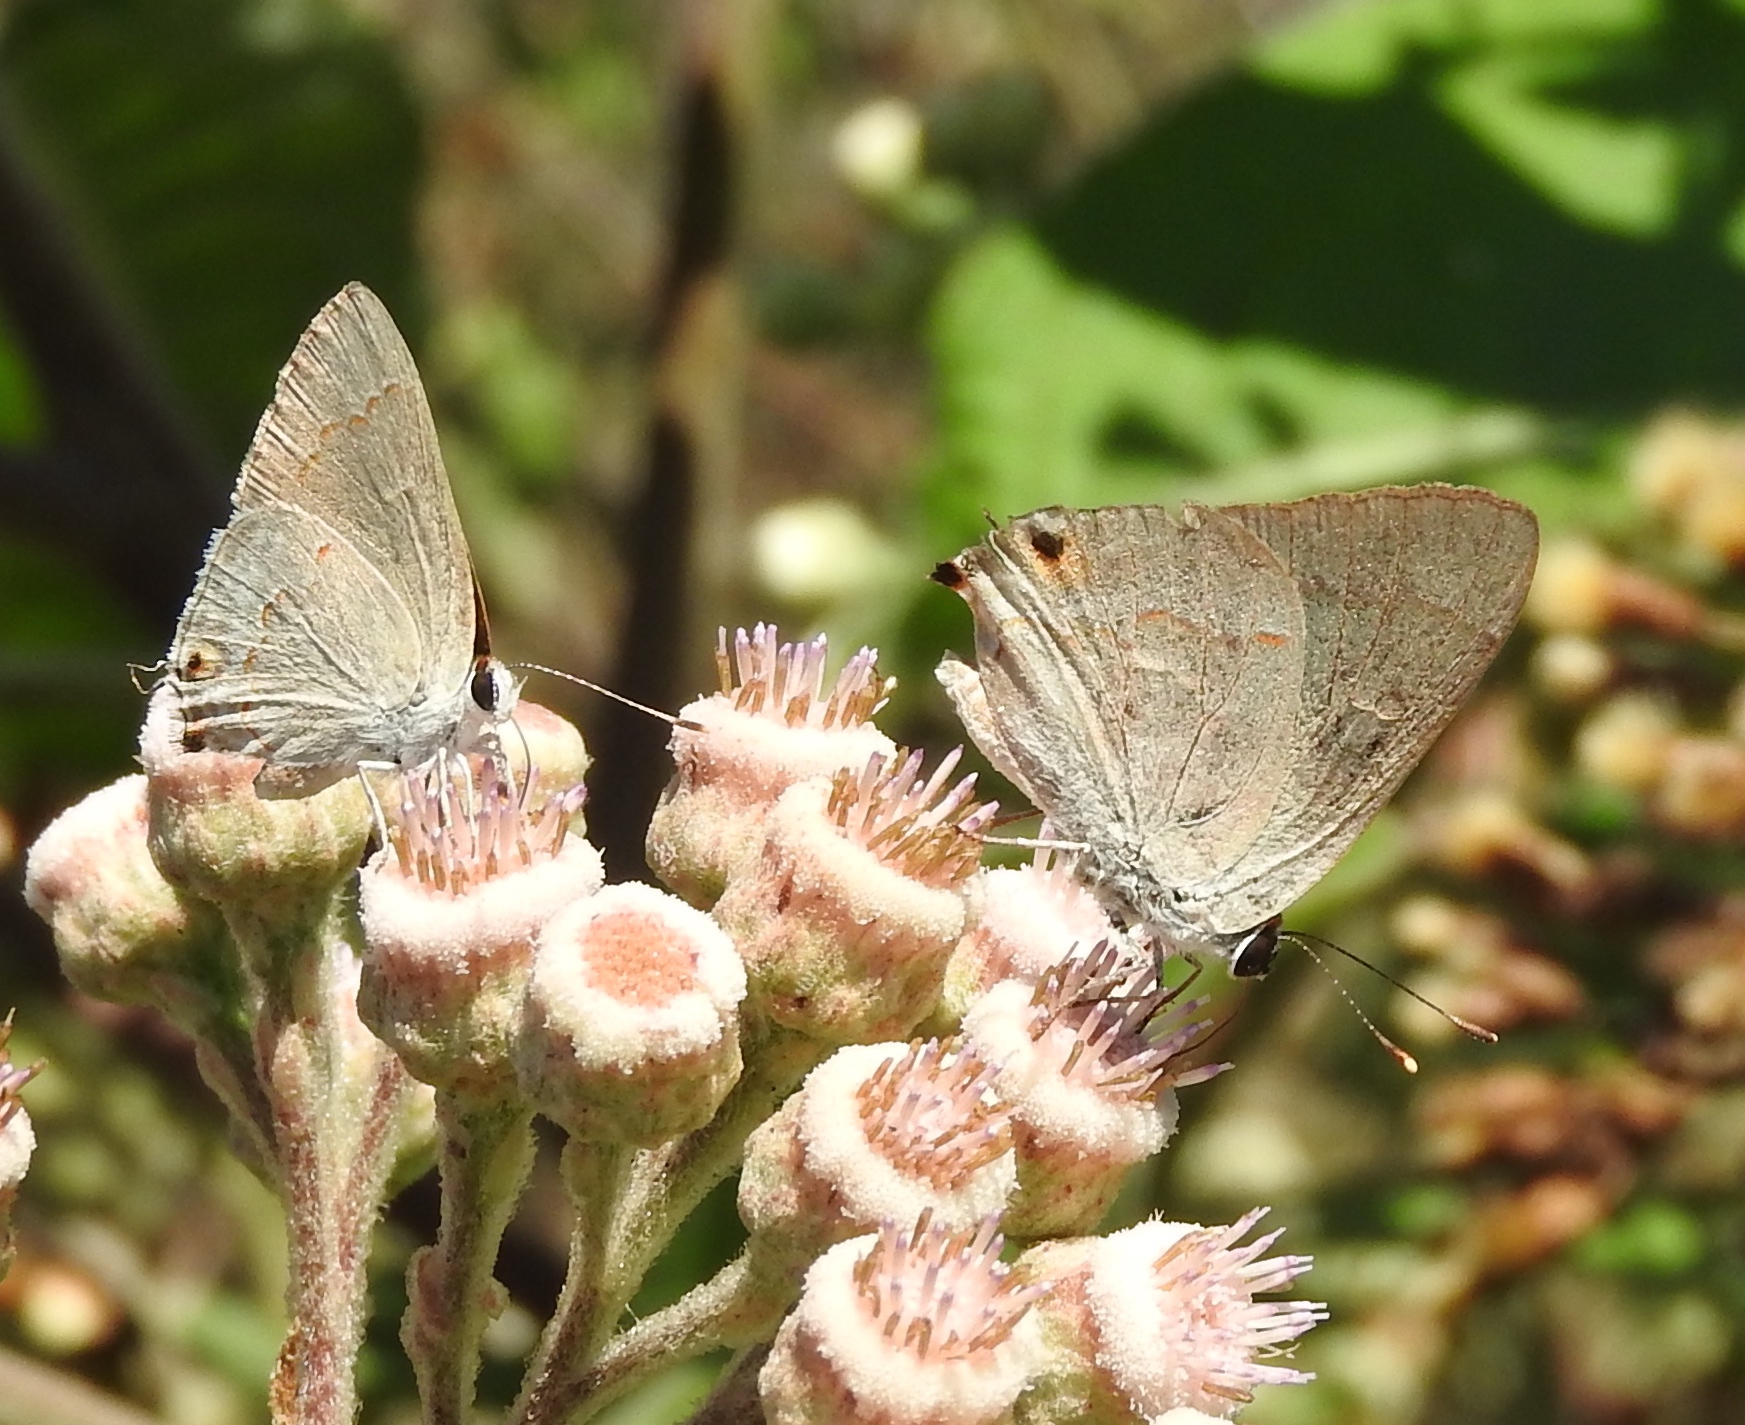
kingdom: Animalia
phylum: Arthropoda
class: Insecta
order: Lepidoptera
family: Lycaenidae
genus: Thecla
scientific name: Thecla bebrycia
